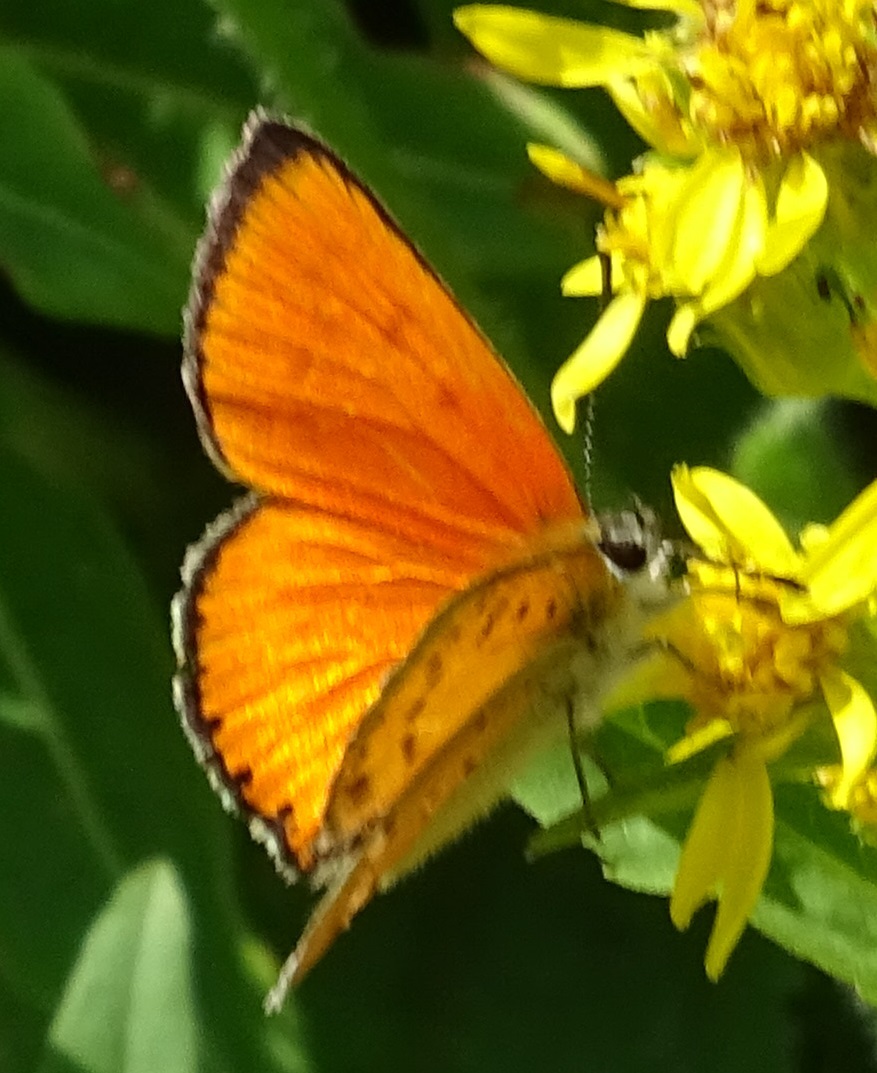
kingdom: Animalia
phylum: Arthropoda
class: Insecta
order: Lepidoptera
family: Lycaenidae
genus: Lycaena
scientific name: Lycaena virgaureae
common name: Scarce copper
